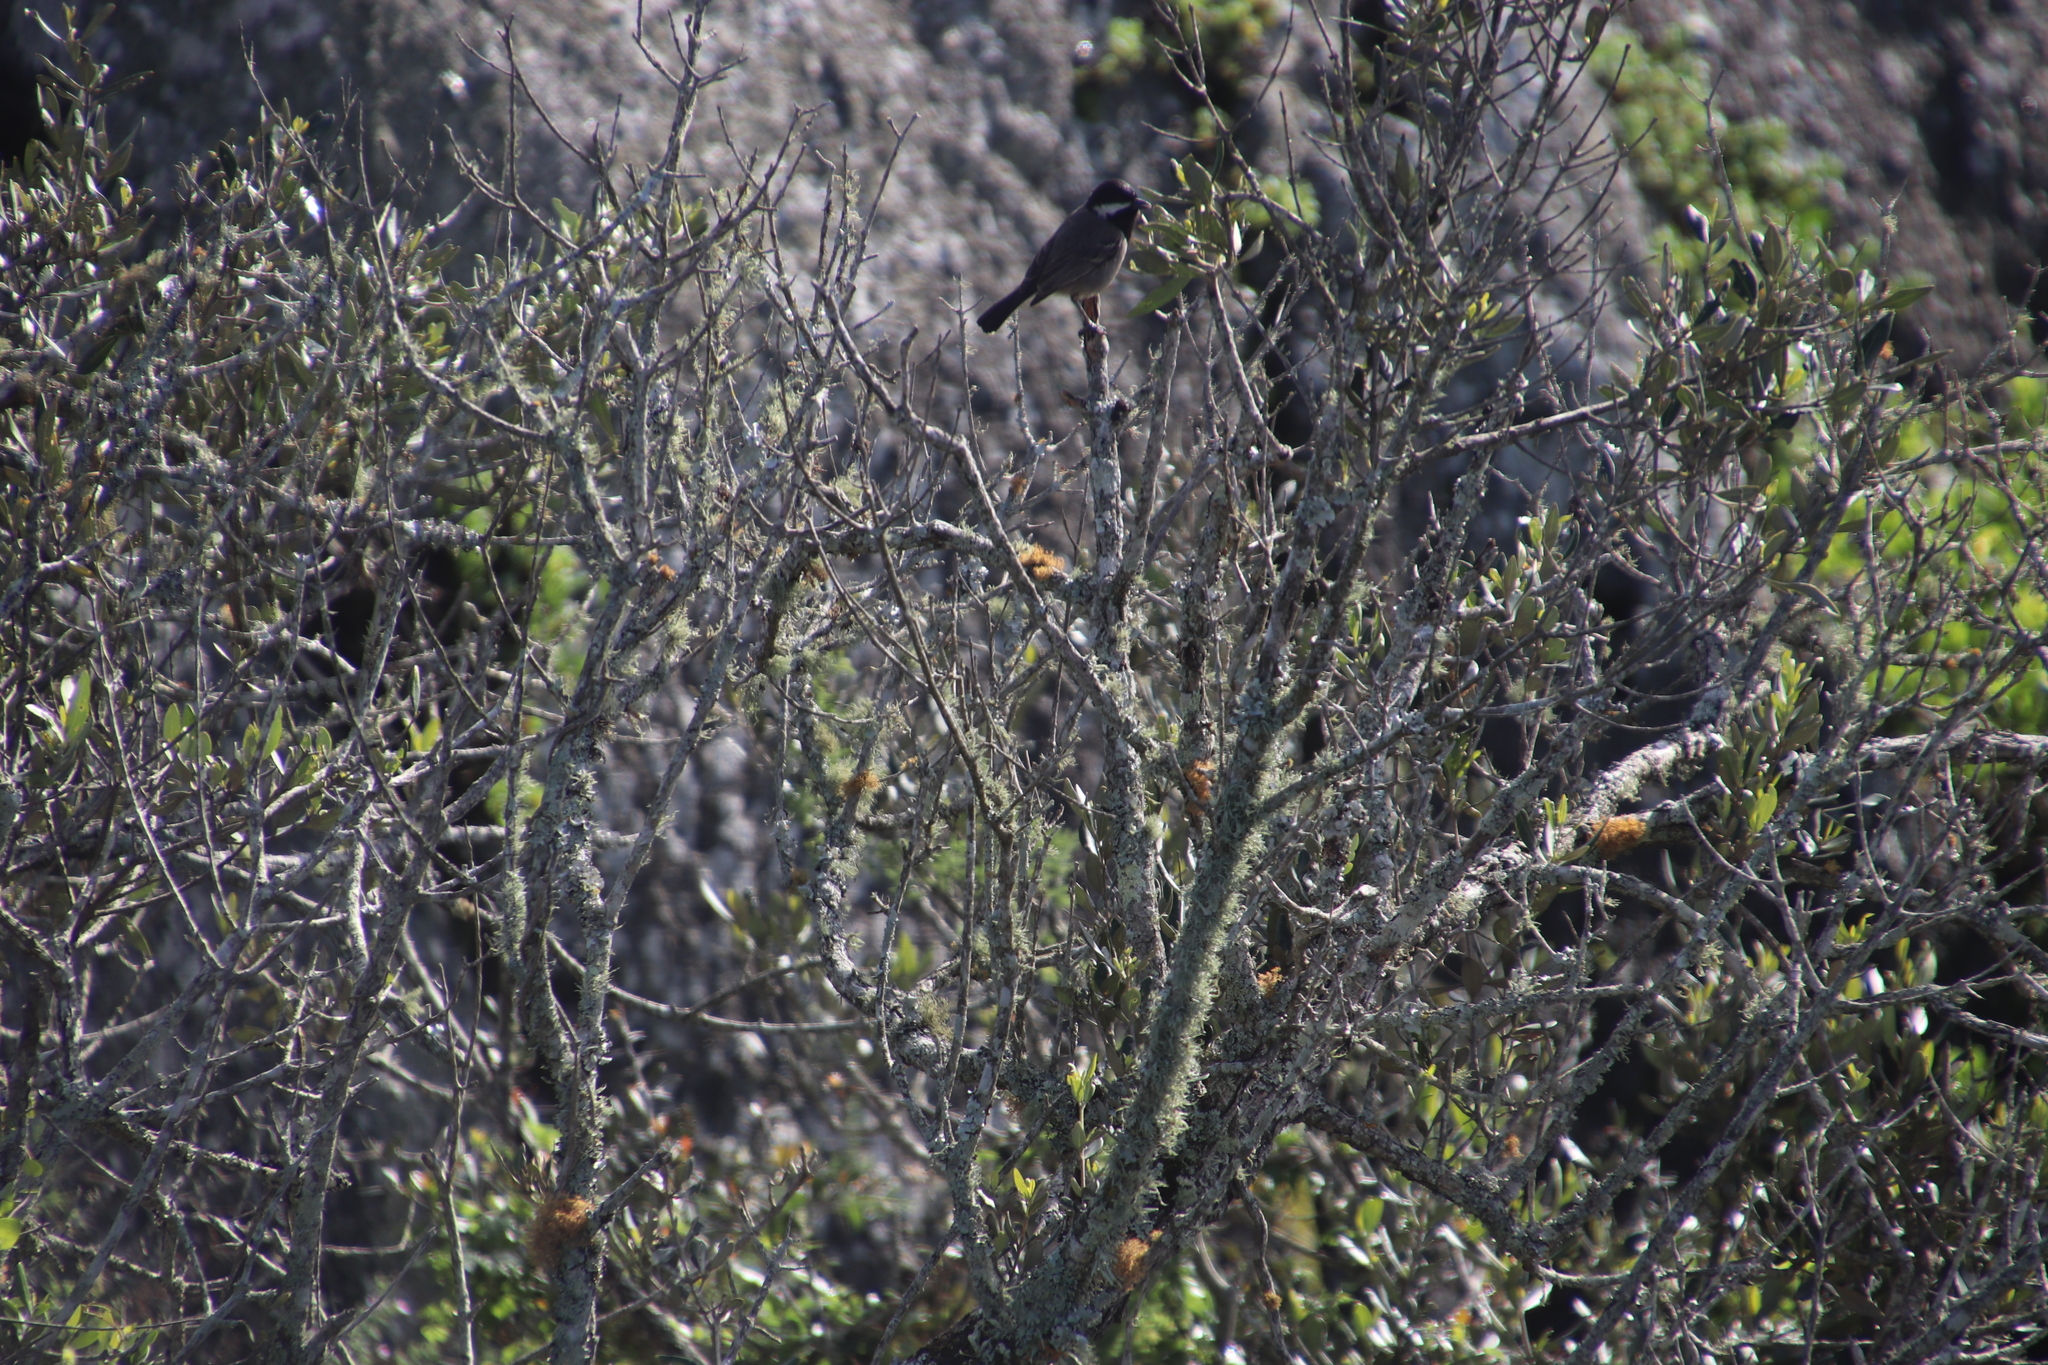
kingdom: Animalia
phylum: Chordata
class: Aves
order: Passeriformes
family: Paridae
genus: Parus
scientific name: Parus afer
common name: Grey tit
